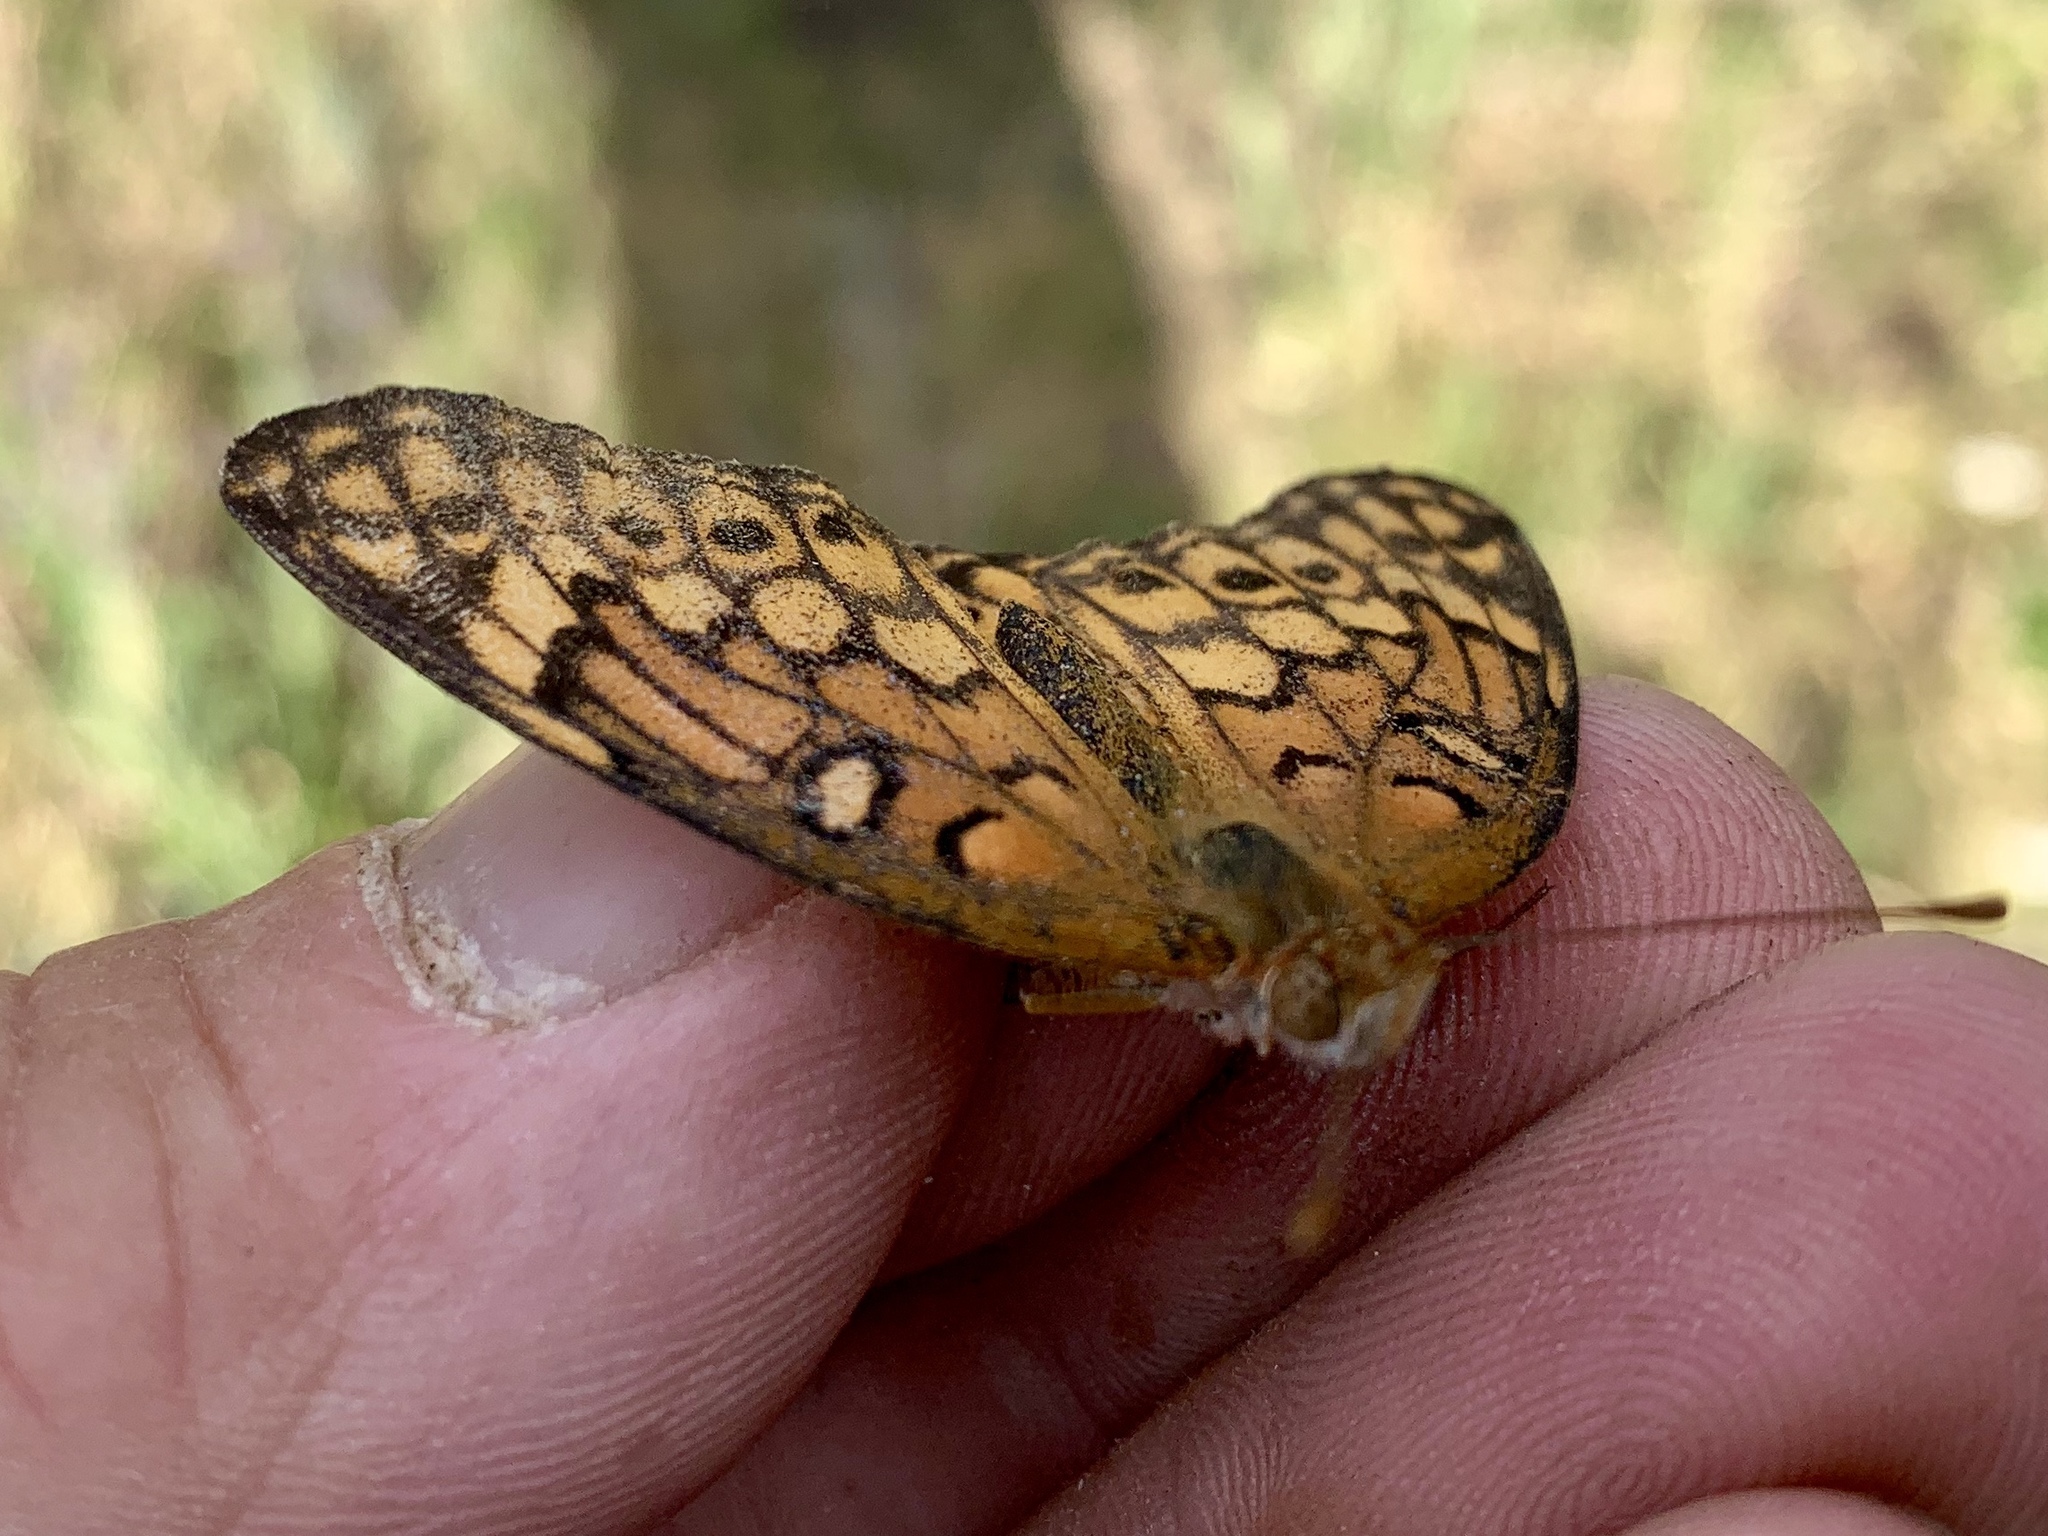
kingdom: Animalia
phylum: Arthropoda
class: Insecta
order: Lepidoptera
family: Nymphalidae
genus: Euptoieta
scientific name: Euptoieta claudia
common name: Variegated fritillary
